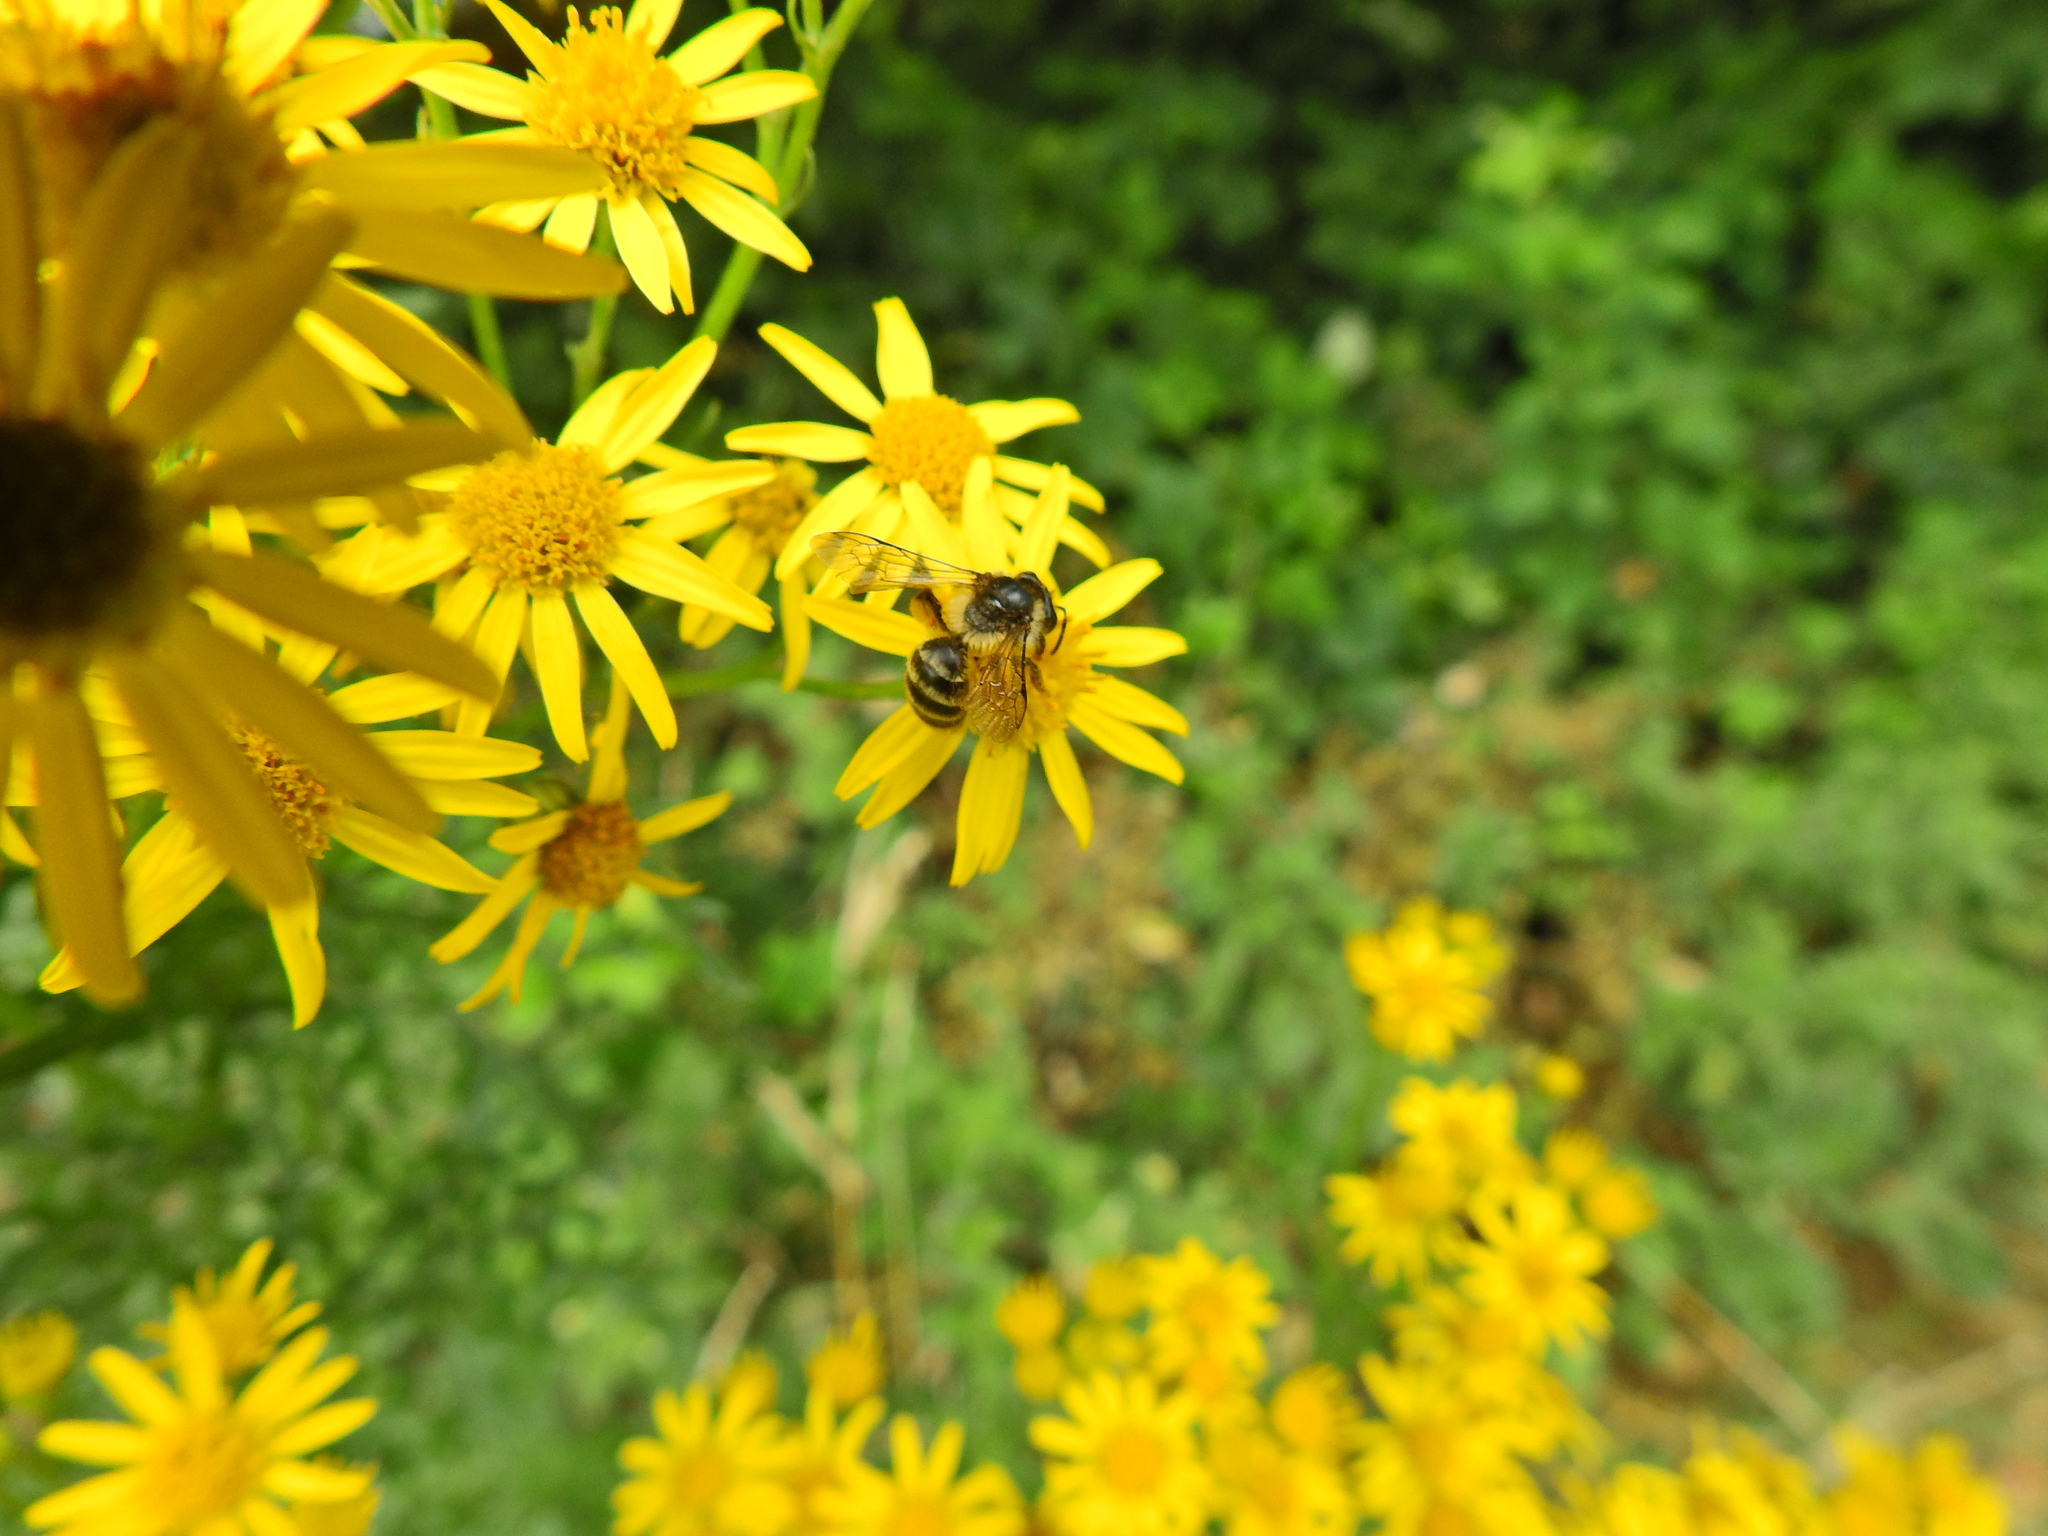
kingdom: Animalia
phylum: Arthropoda
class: Insecta
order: Hymenoptera
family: Andrenidae
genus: Andrena
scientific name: Andrena denticulata
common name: Grey-banded mining bee
